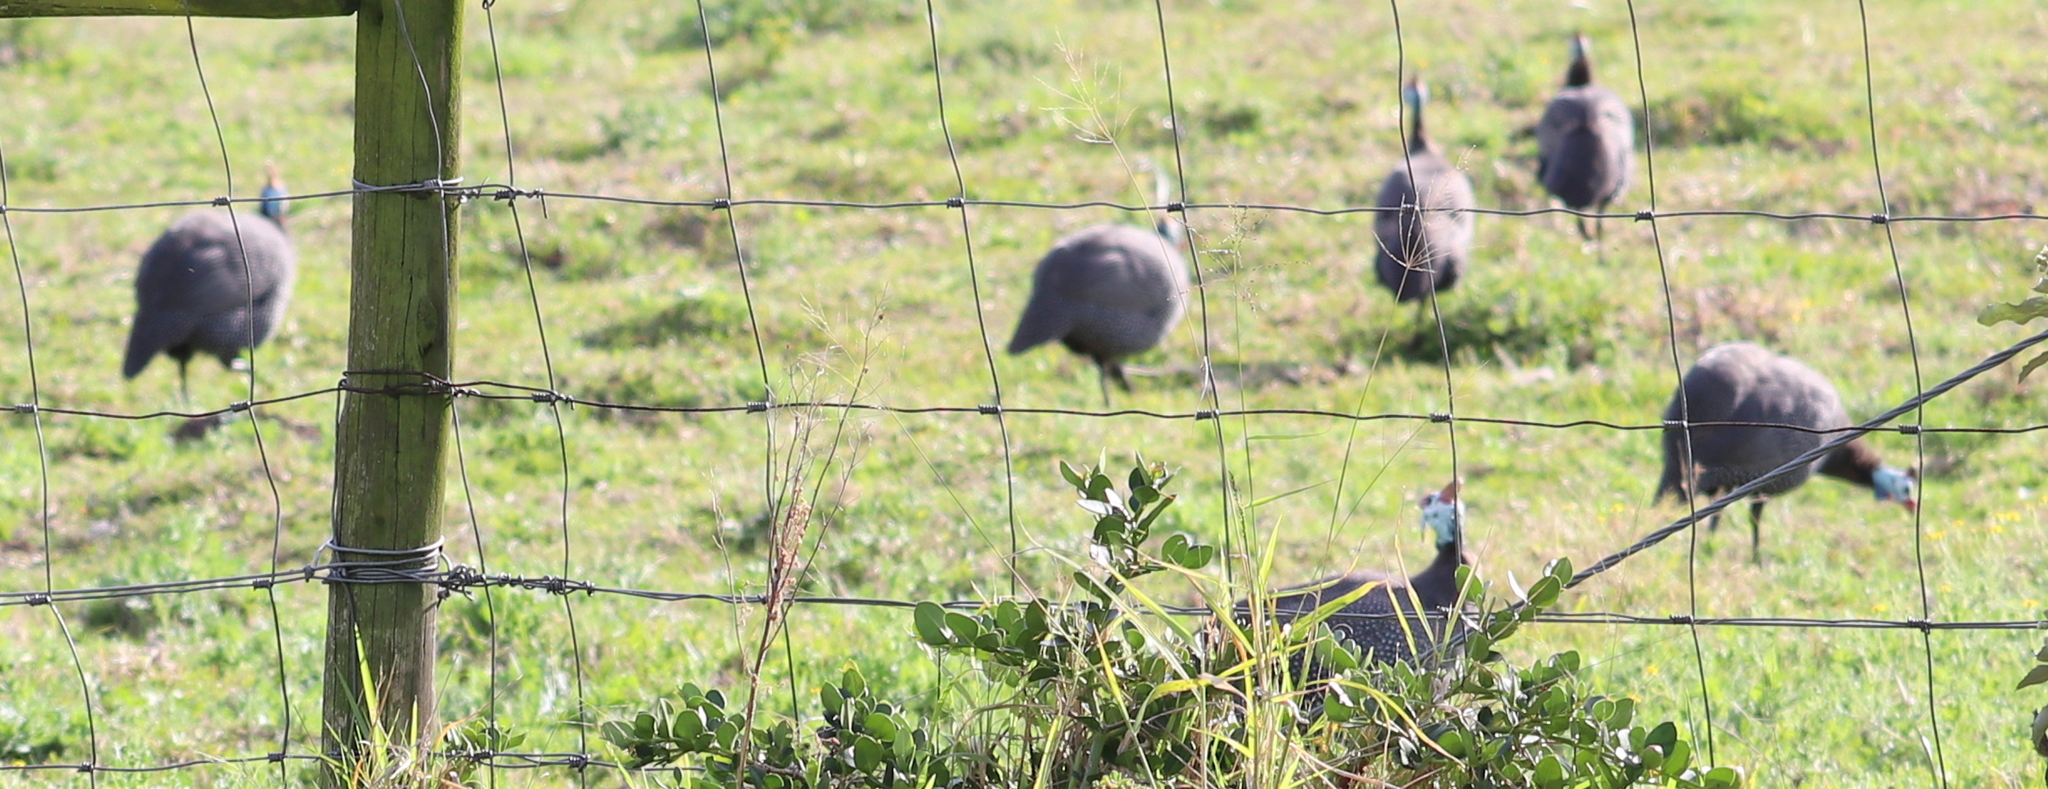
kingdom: Animalia
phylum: Chordata
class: Aves
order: Galliformes
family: Numididae
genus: Numida
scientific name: Numida meleagris
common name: Helmeted guineafowl
